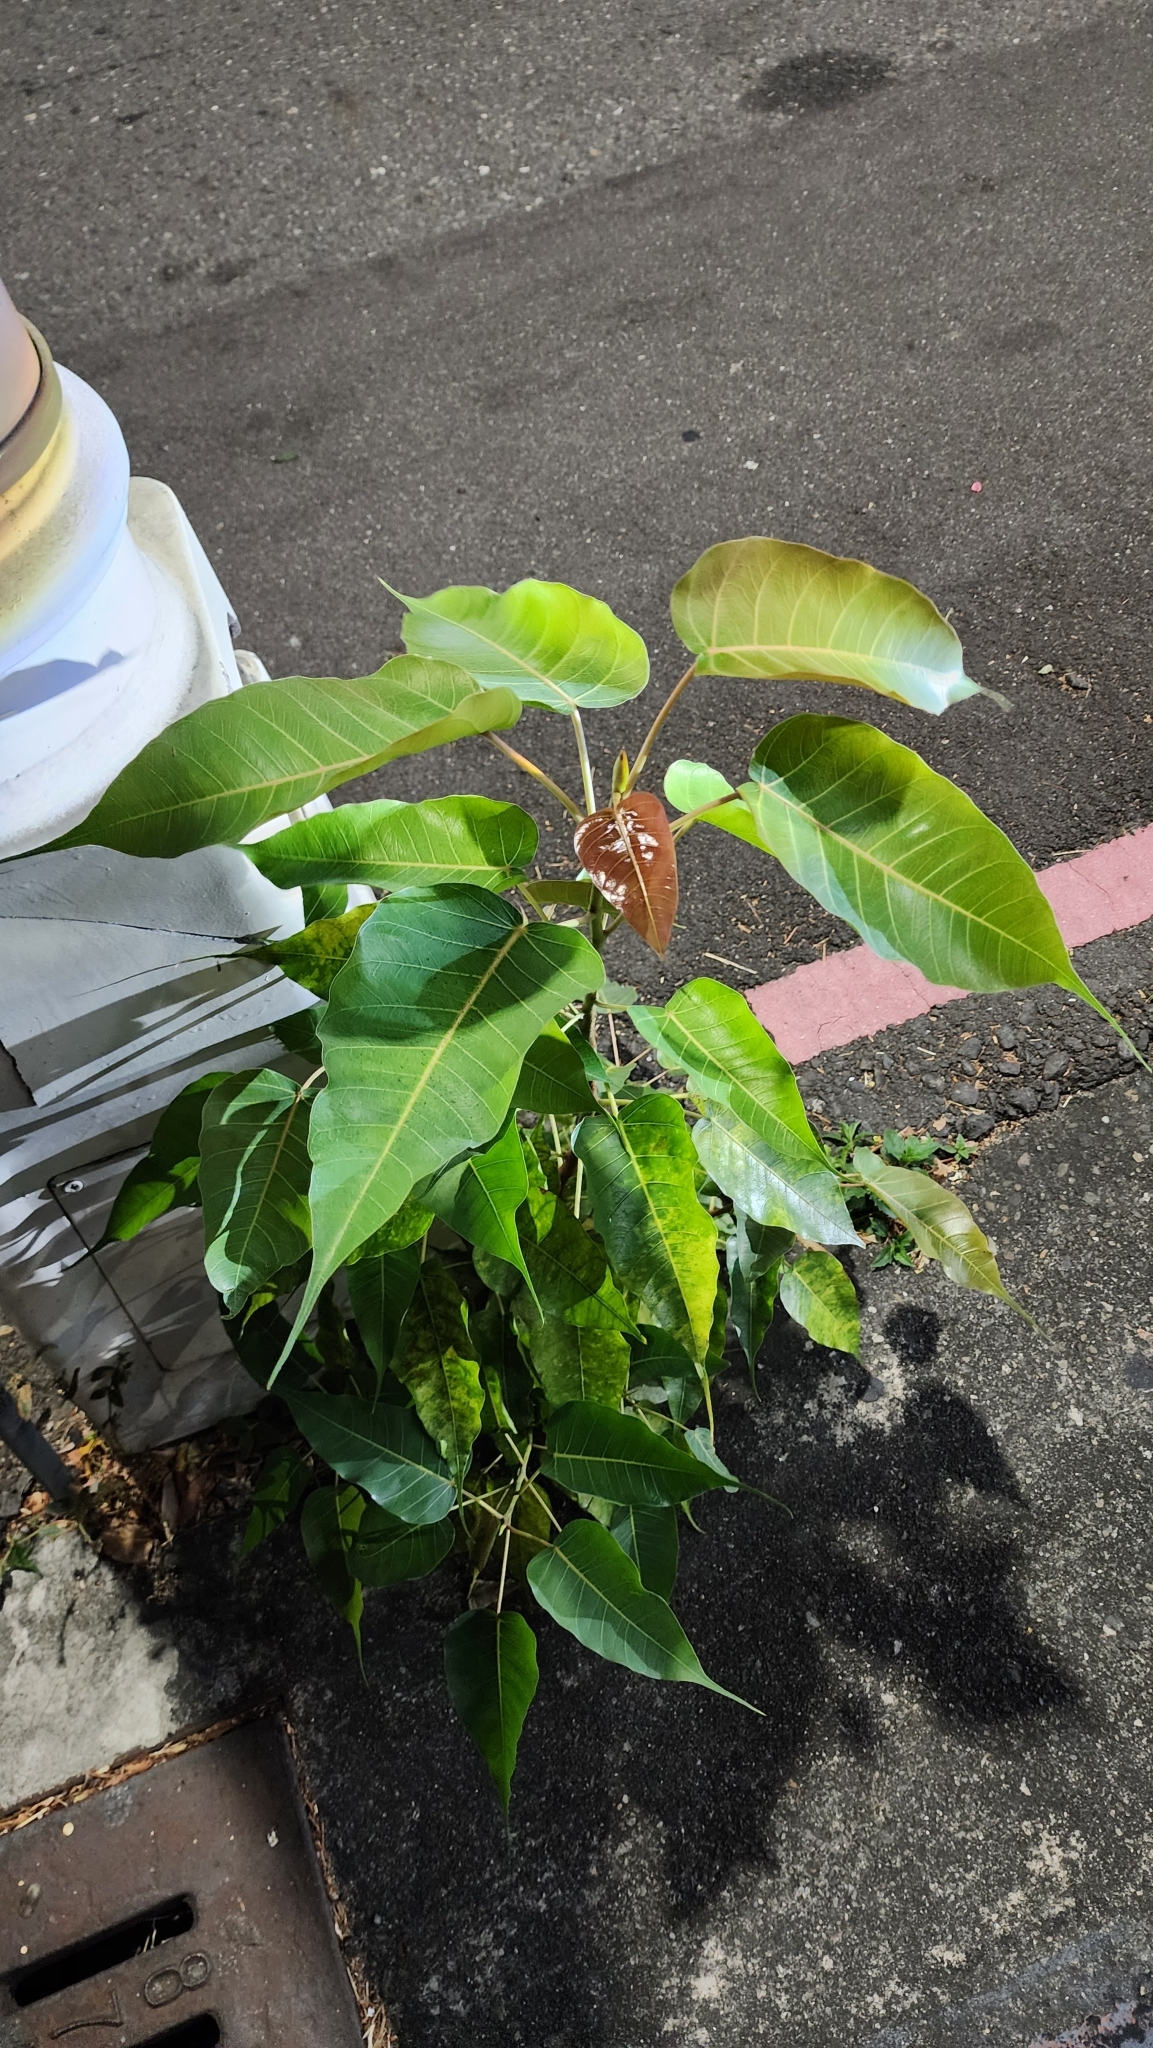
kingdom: Plantae
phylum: Tracheophyta
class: Magnoliopsida
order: Rosales
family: Moraceae
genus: Ficus
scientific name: Ficus religiosa
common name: Bodhi tree
